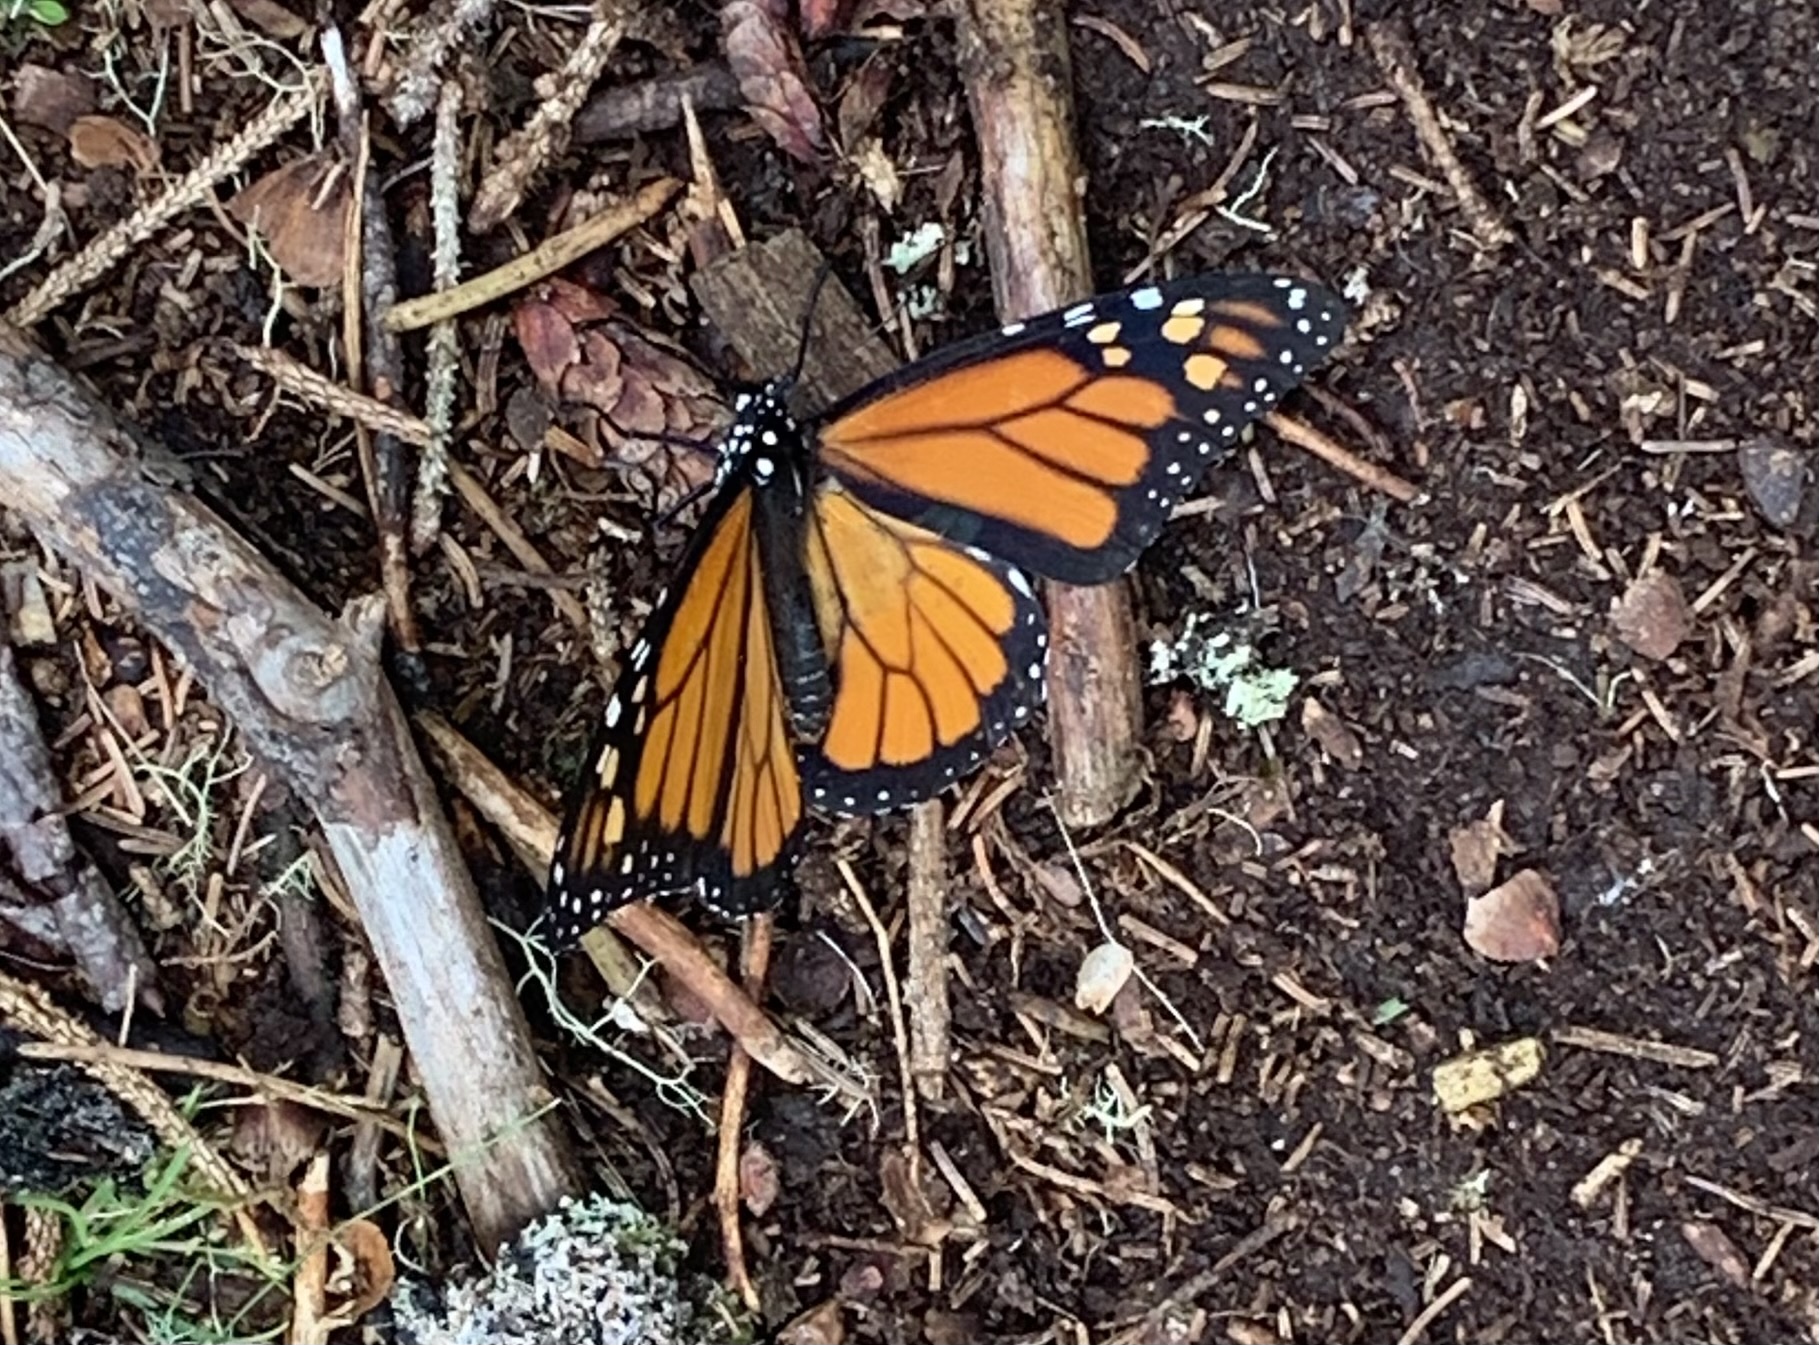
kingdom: Animalia
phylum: Arthropoda
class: Insecta
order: Lepidoptera
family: Nymphalidae
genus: Danaus
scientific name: Danaus plexippus
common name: Monarch
